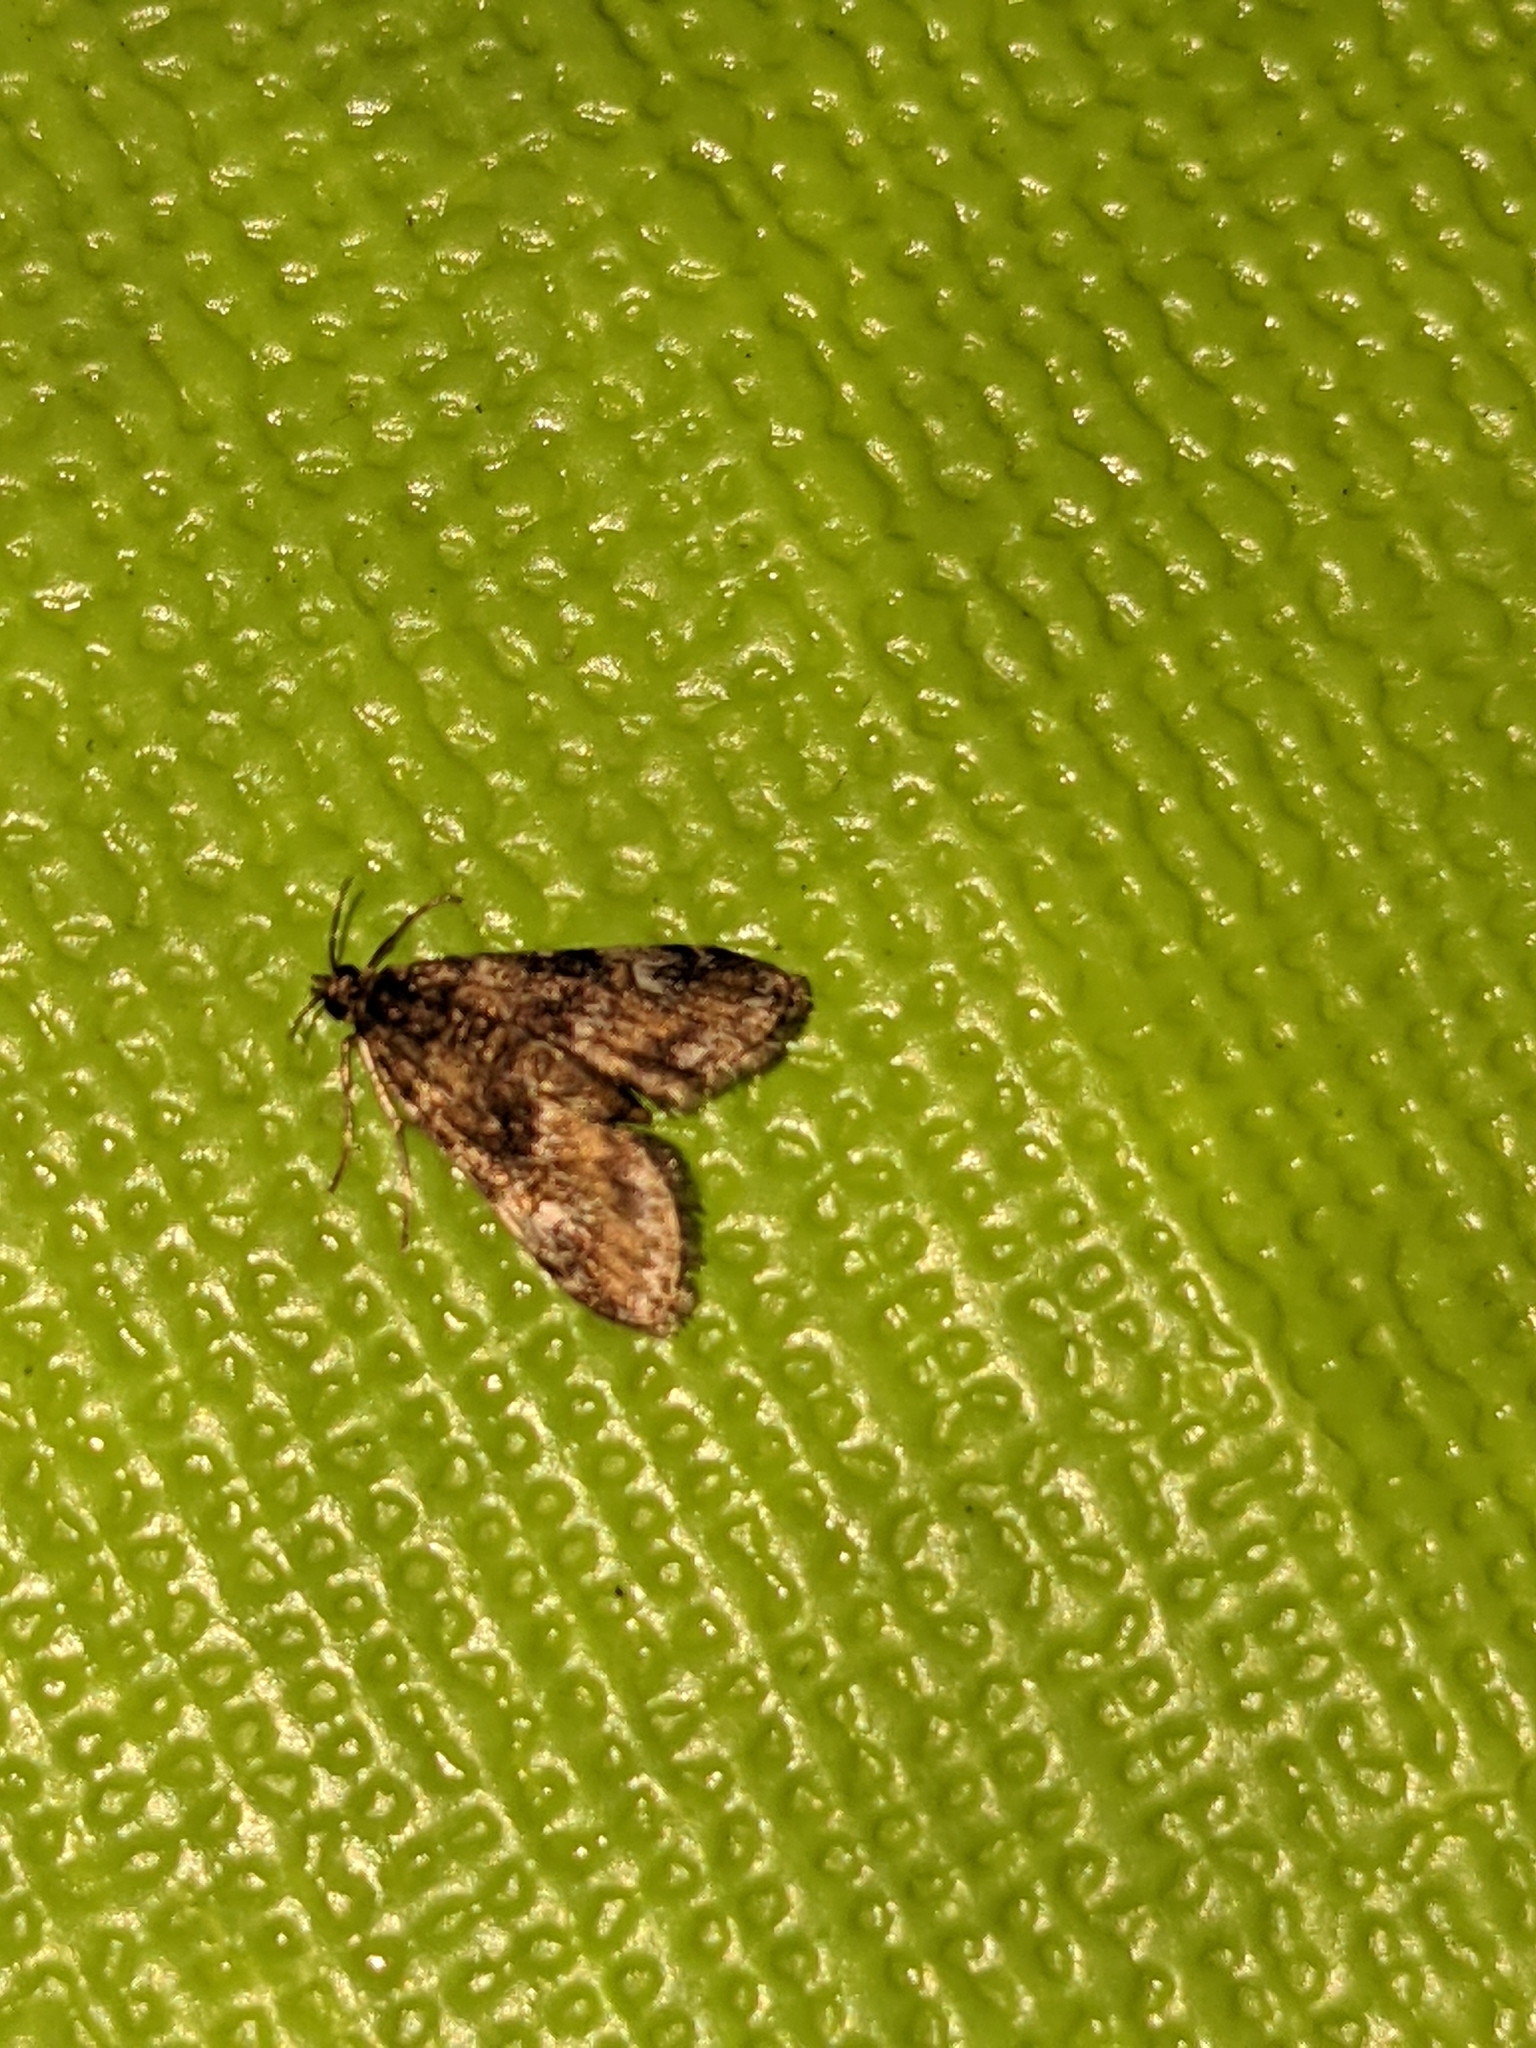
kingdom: Animalia
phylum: Arthropoda
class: Insecta
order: Lepidoptera
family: Crambidae
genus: Elophila
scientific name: Elophila obliteralis
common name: Waterlily leafcutter moth
